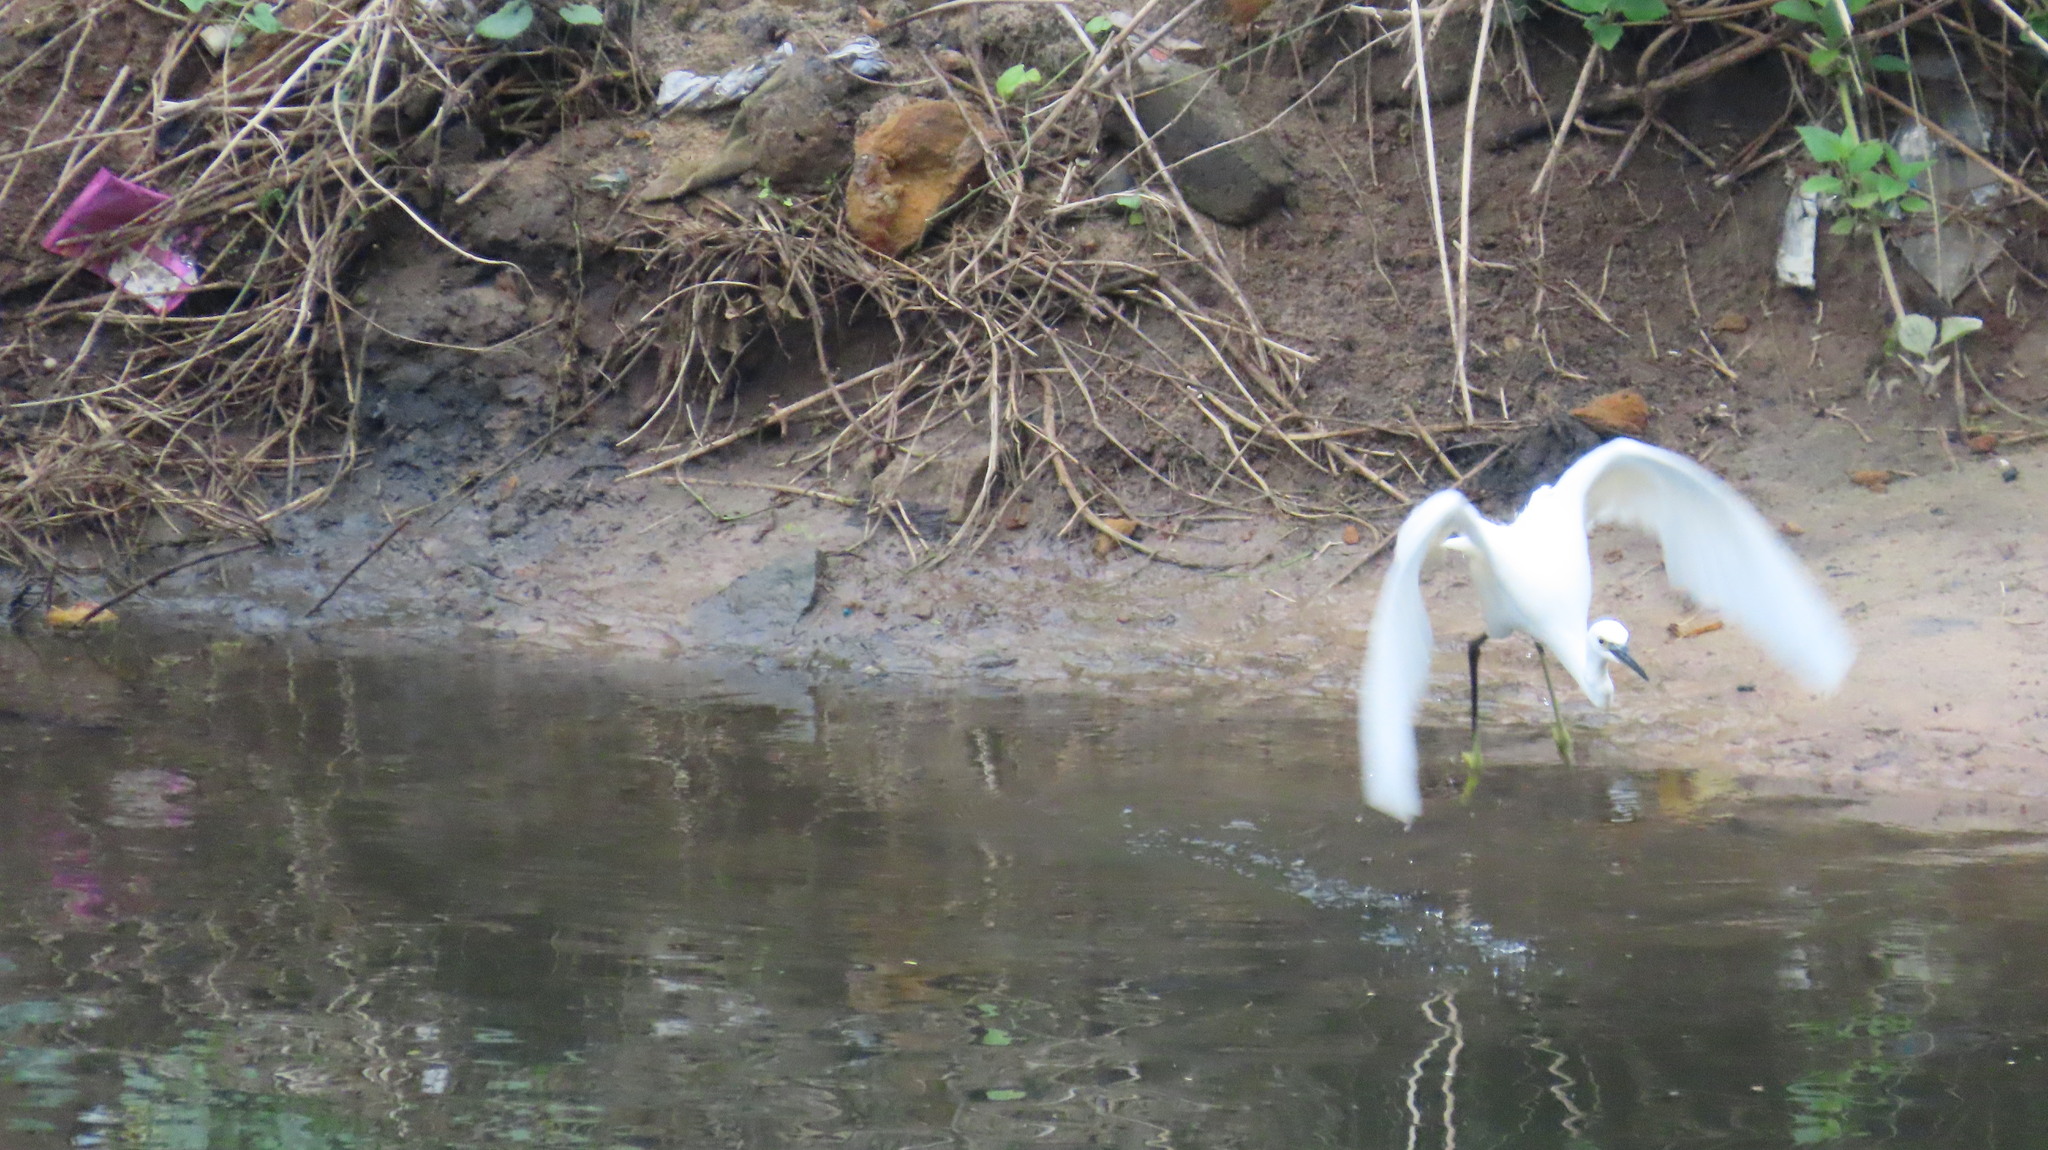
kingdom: Animalia
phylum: Chordata
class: Aves
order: Pelecaniformes
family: Ardeidae
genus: Egretta
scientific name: Egretta garzetta
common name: Little egret
